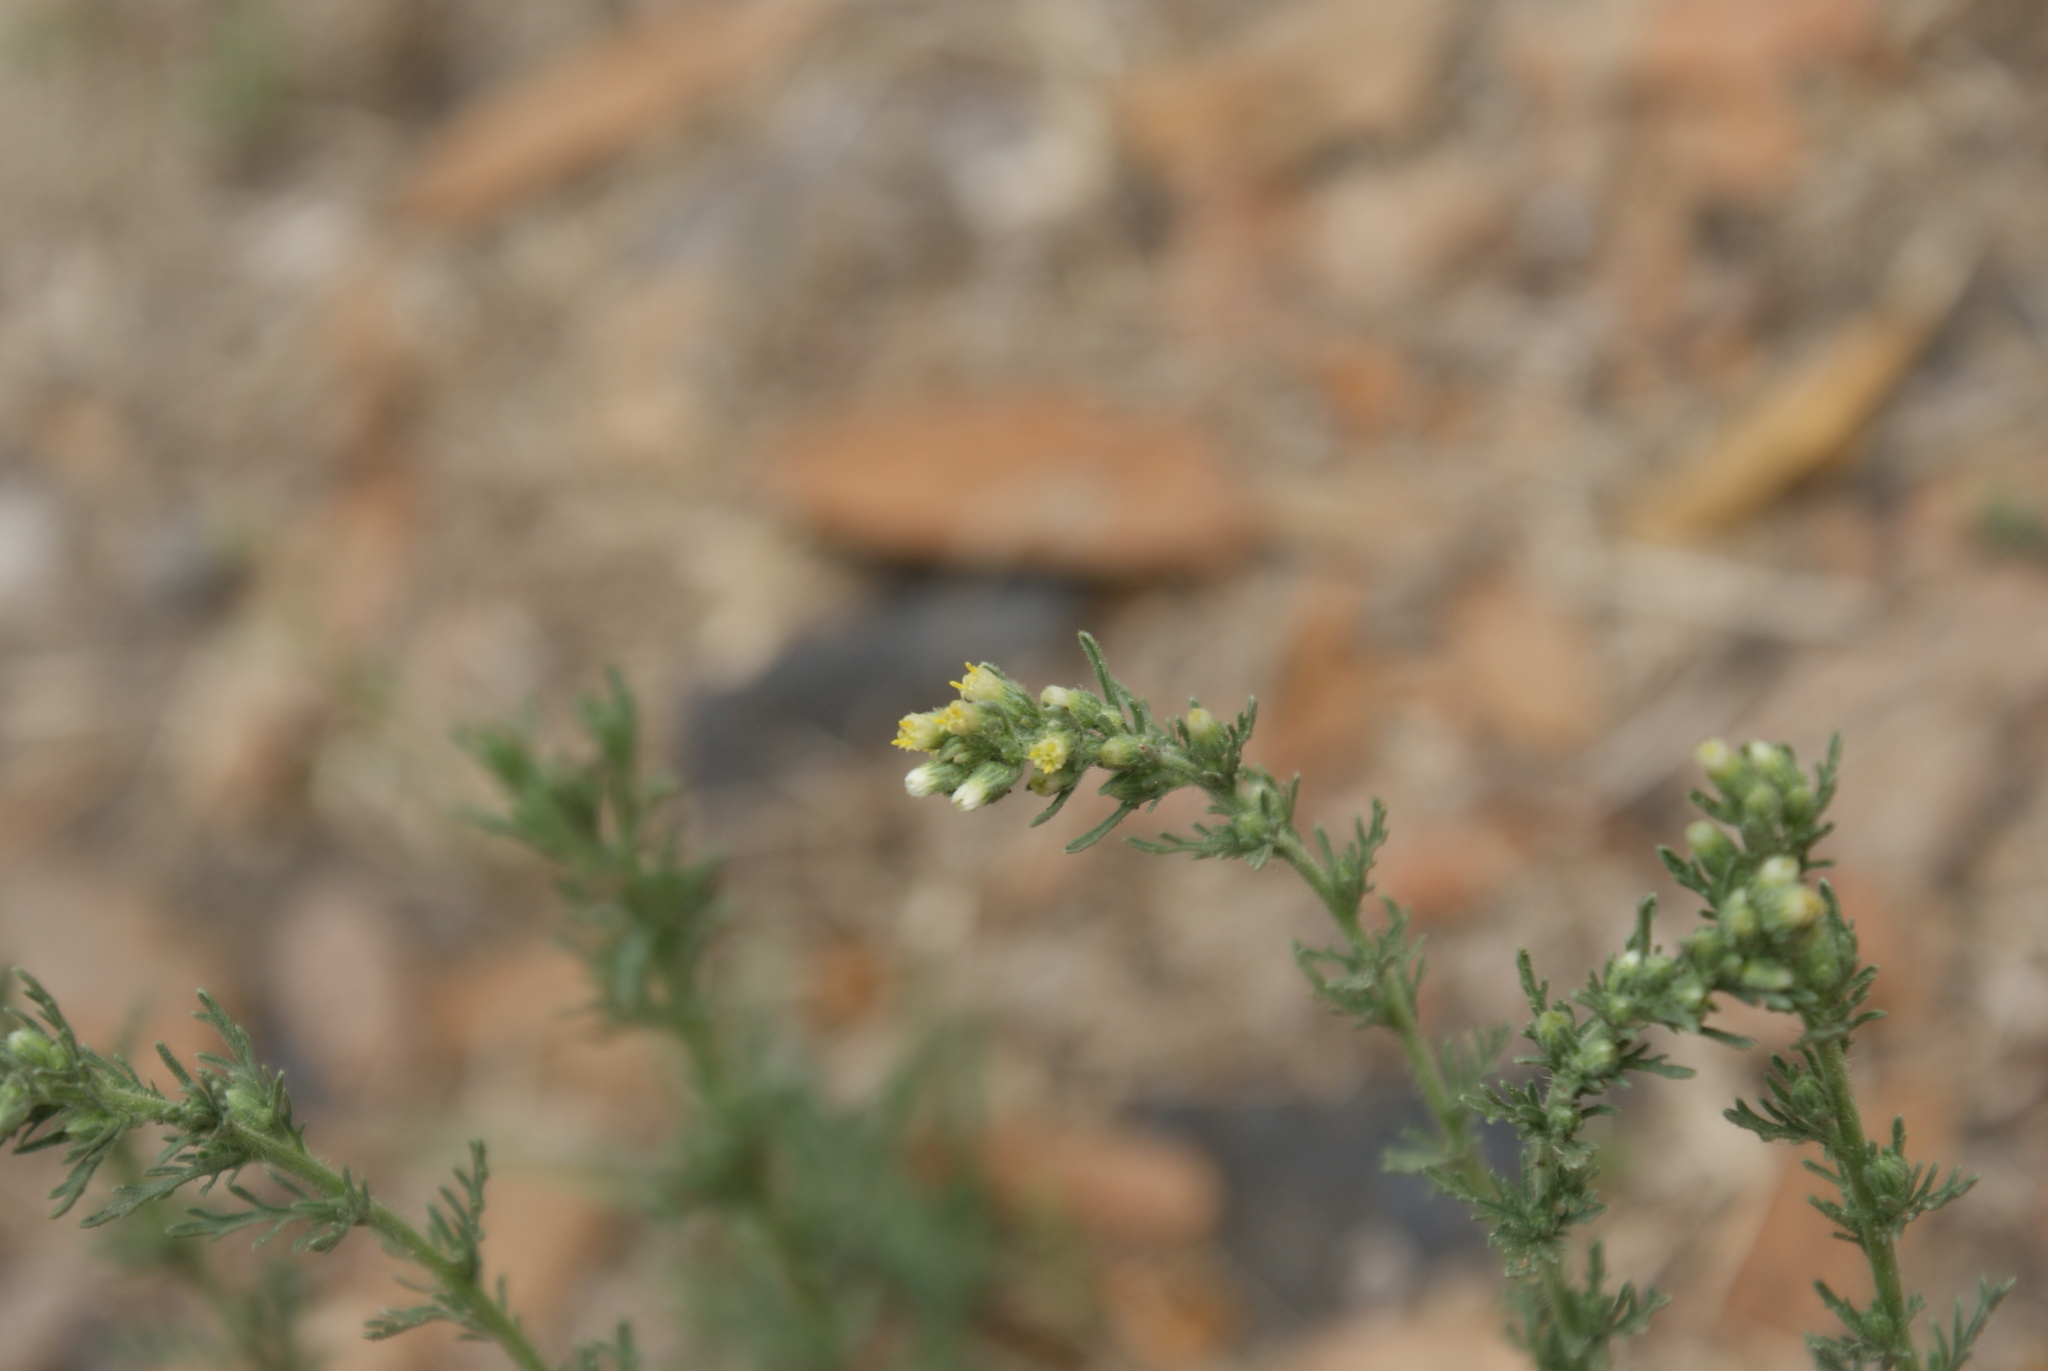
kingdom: Plantae
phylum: Tracheophyta
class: Magnoliopsida
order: Asterales
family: Asteraceae
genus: Laennecia
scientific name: Laennecia sophiifolia
